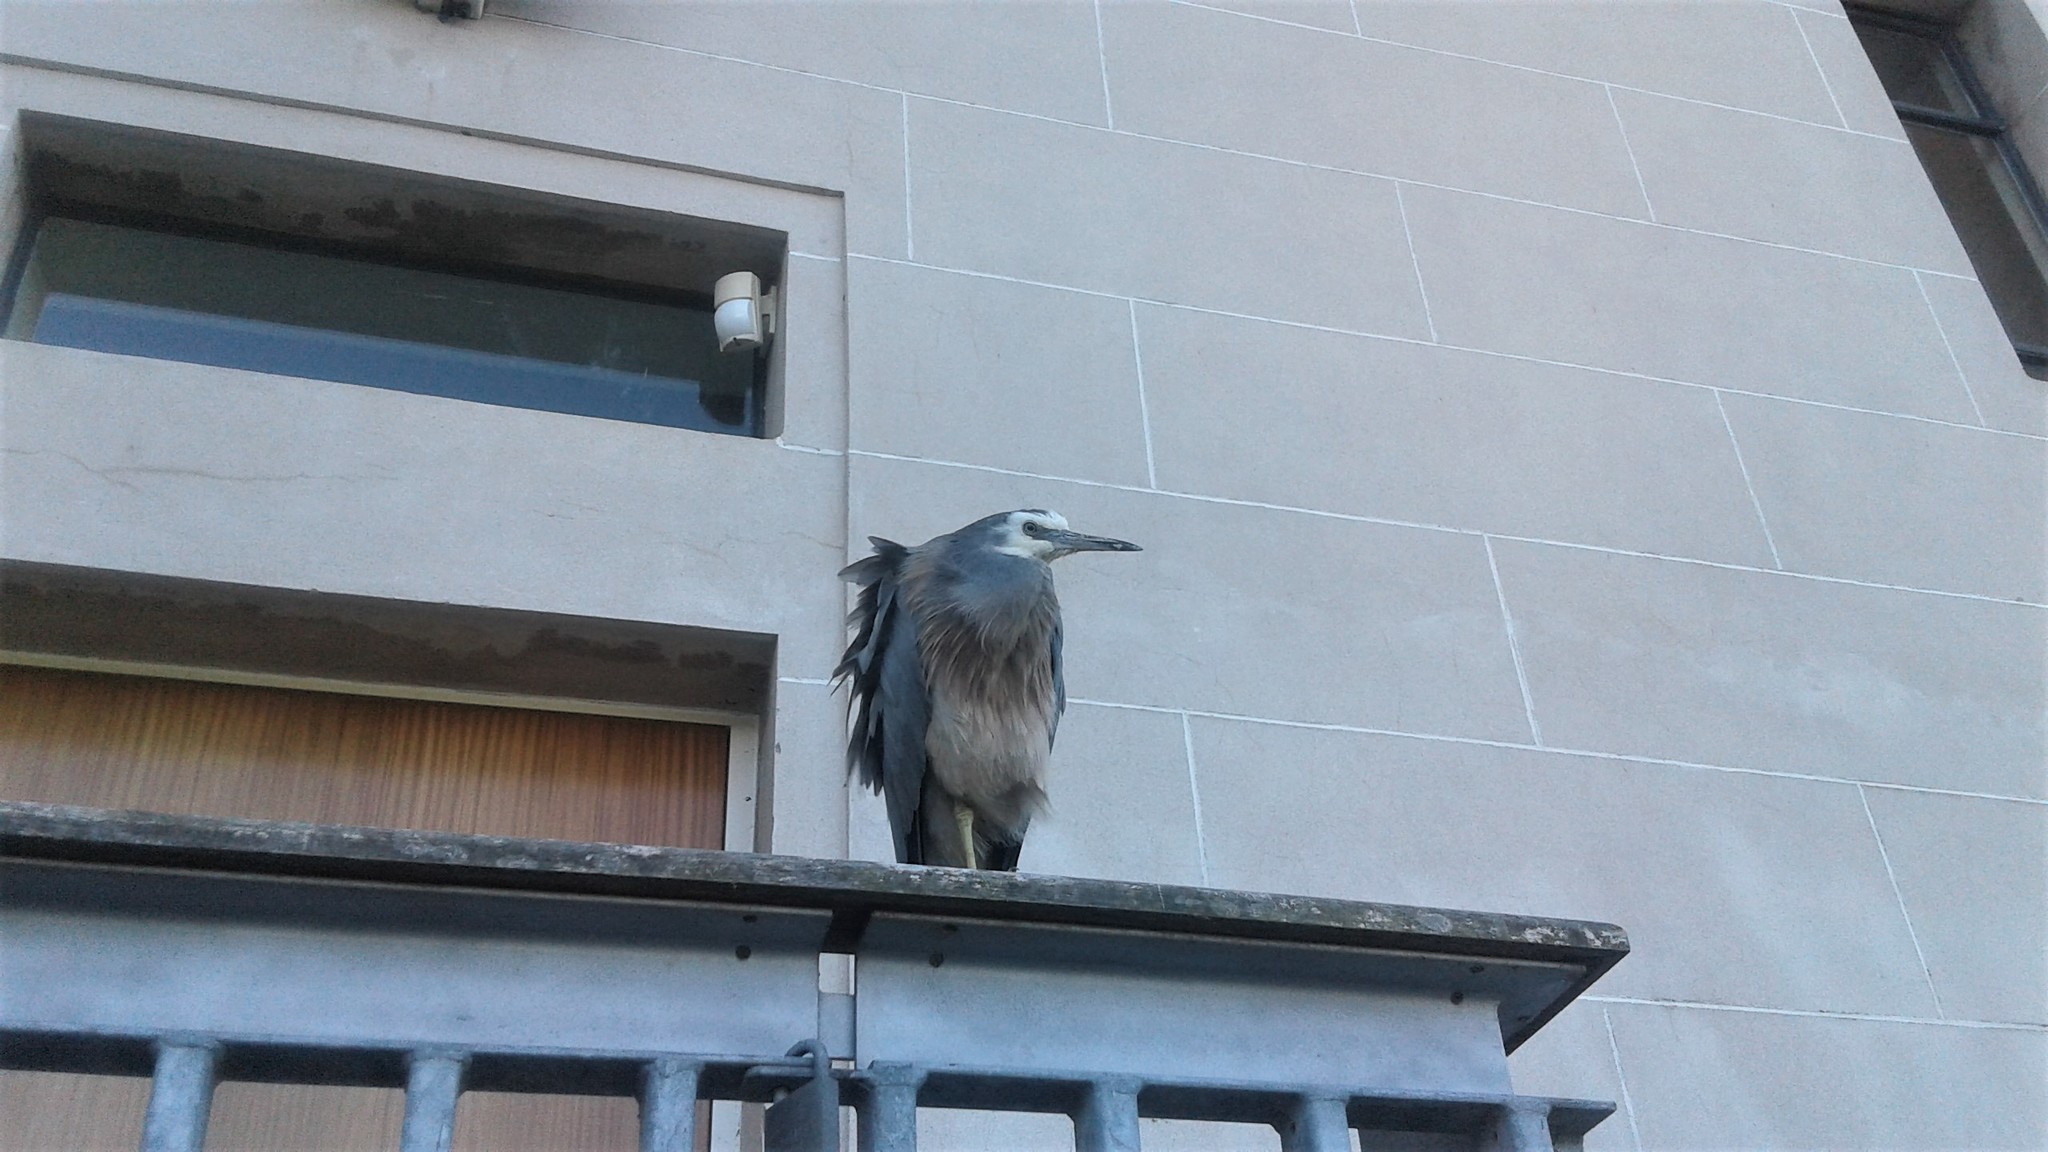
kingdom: Animalia
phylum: Chordata
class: Aves
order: Pelecaniformes
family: Ardeidae
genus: Egretta
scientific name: Egretta novaehollandiae
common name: White-faced heron
